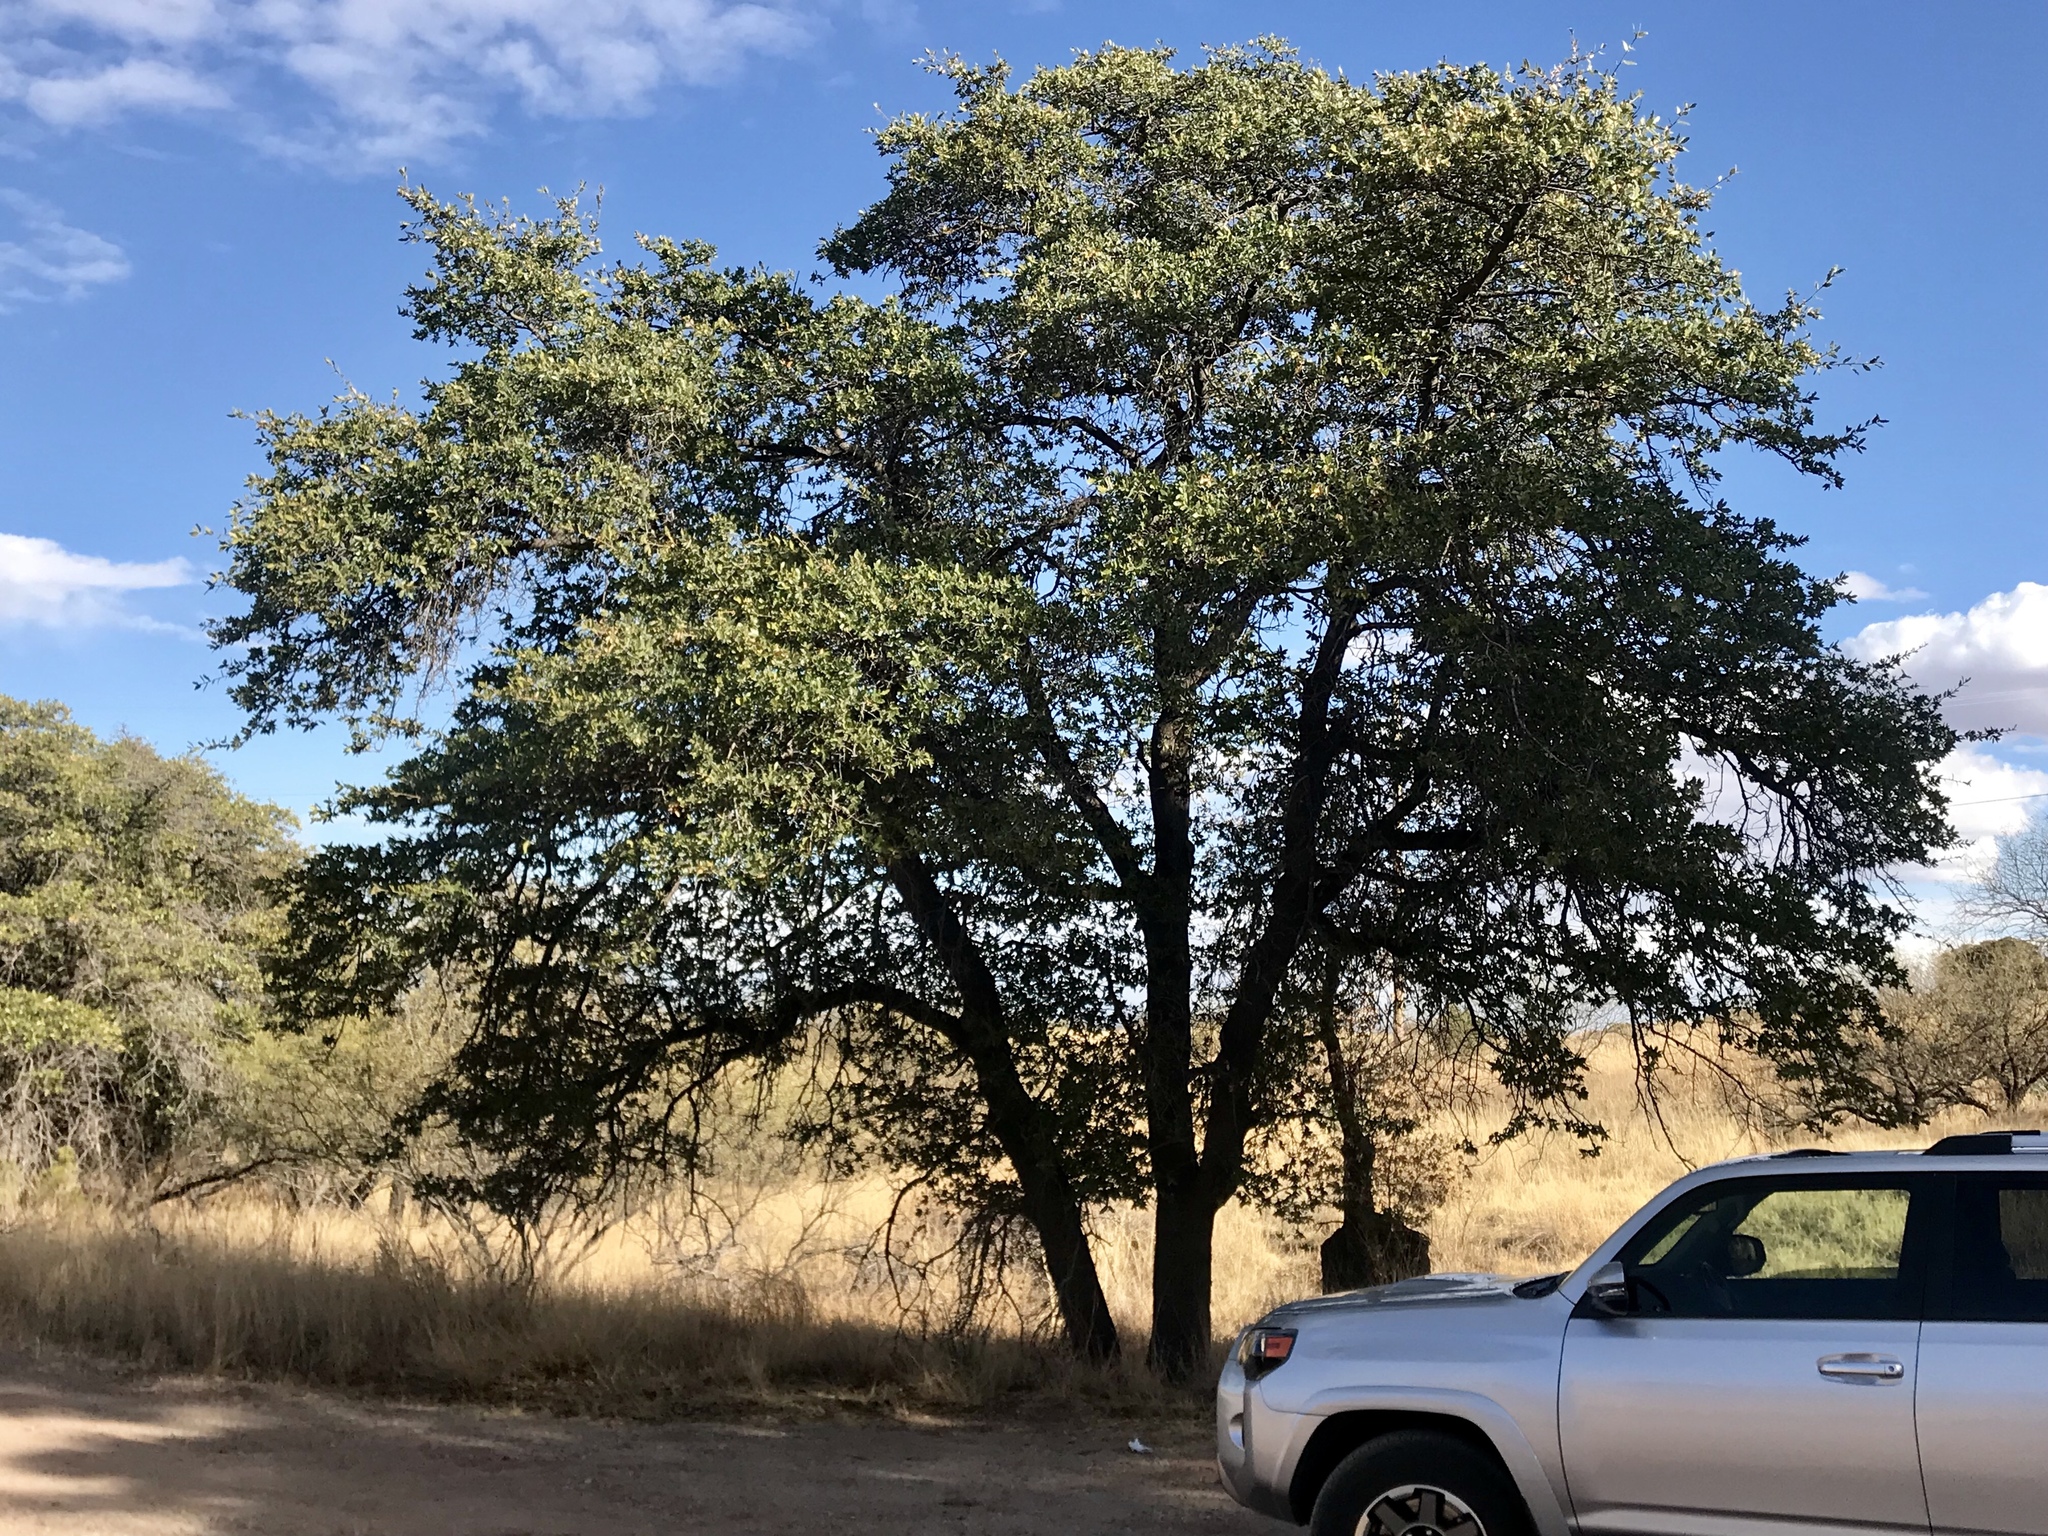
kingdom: Plantae
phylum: Tracheophyta
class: Magnoliopsida
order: Fagales
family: Fagaceae
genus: Quercus
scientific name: Quercus emoryi
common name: Emory oak
